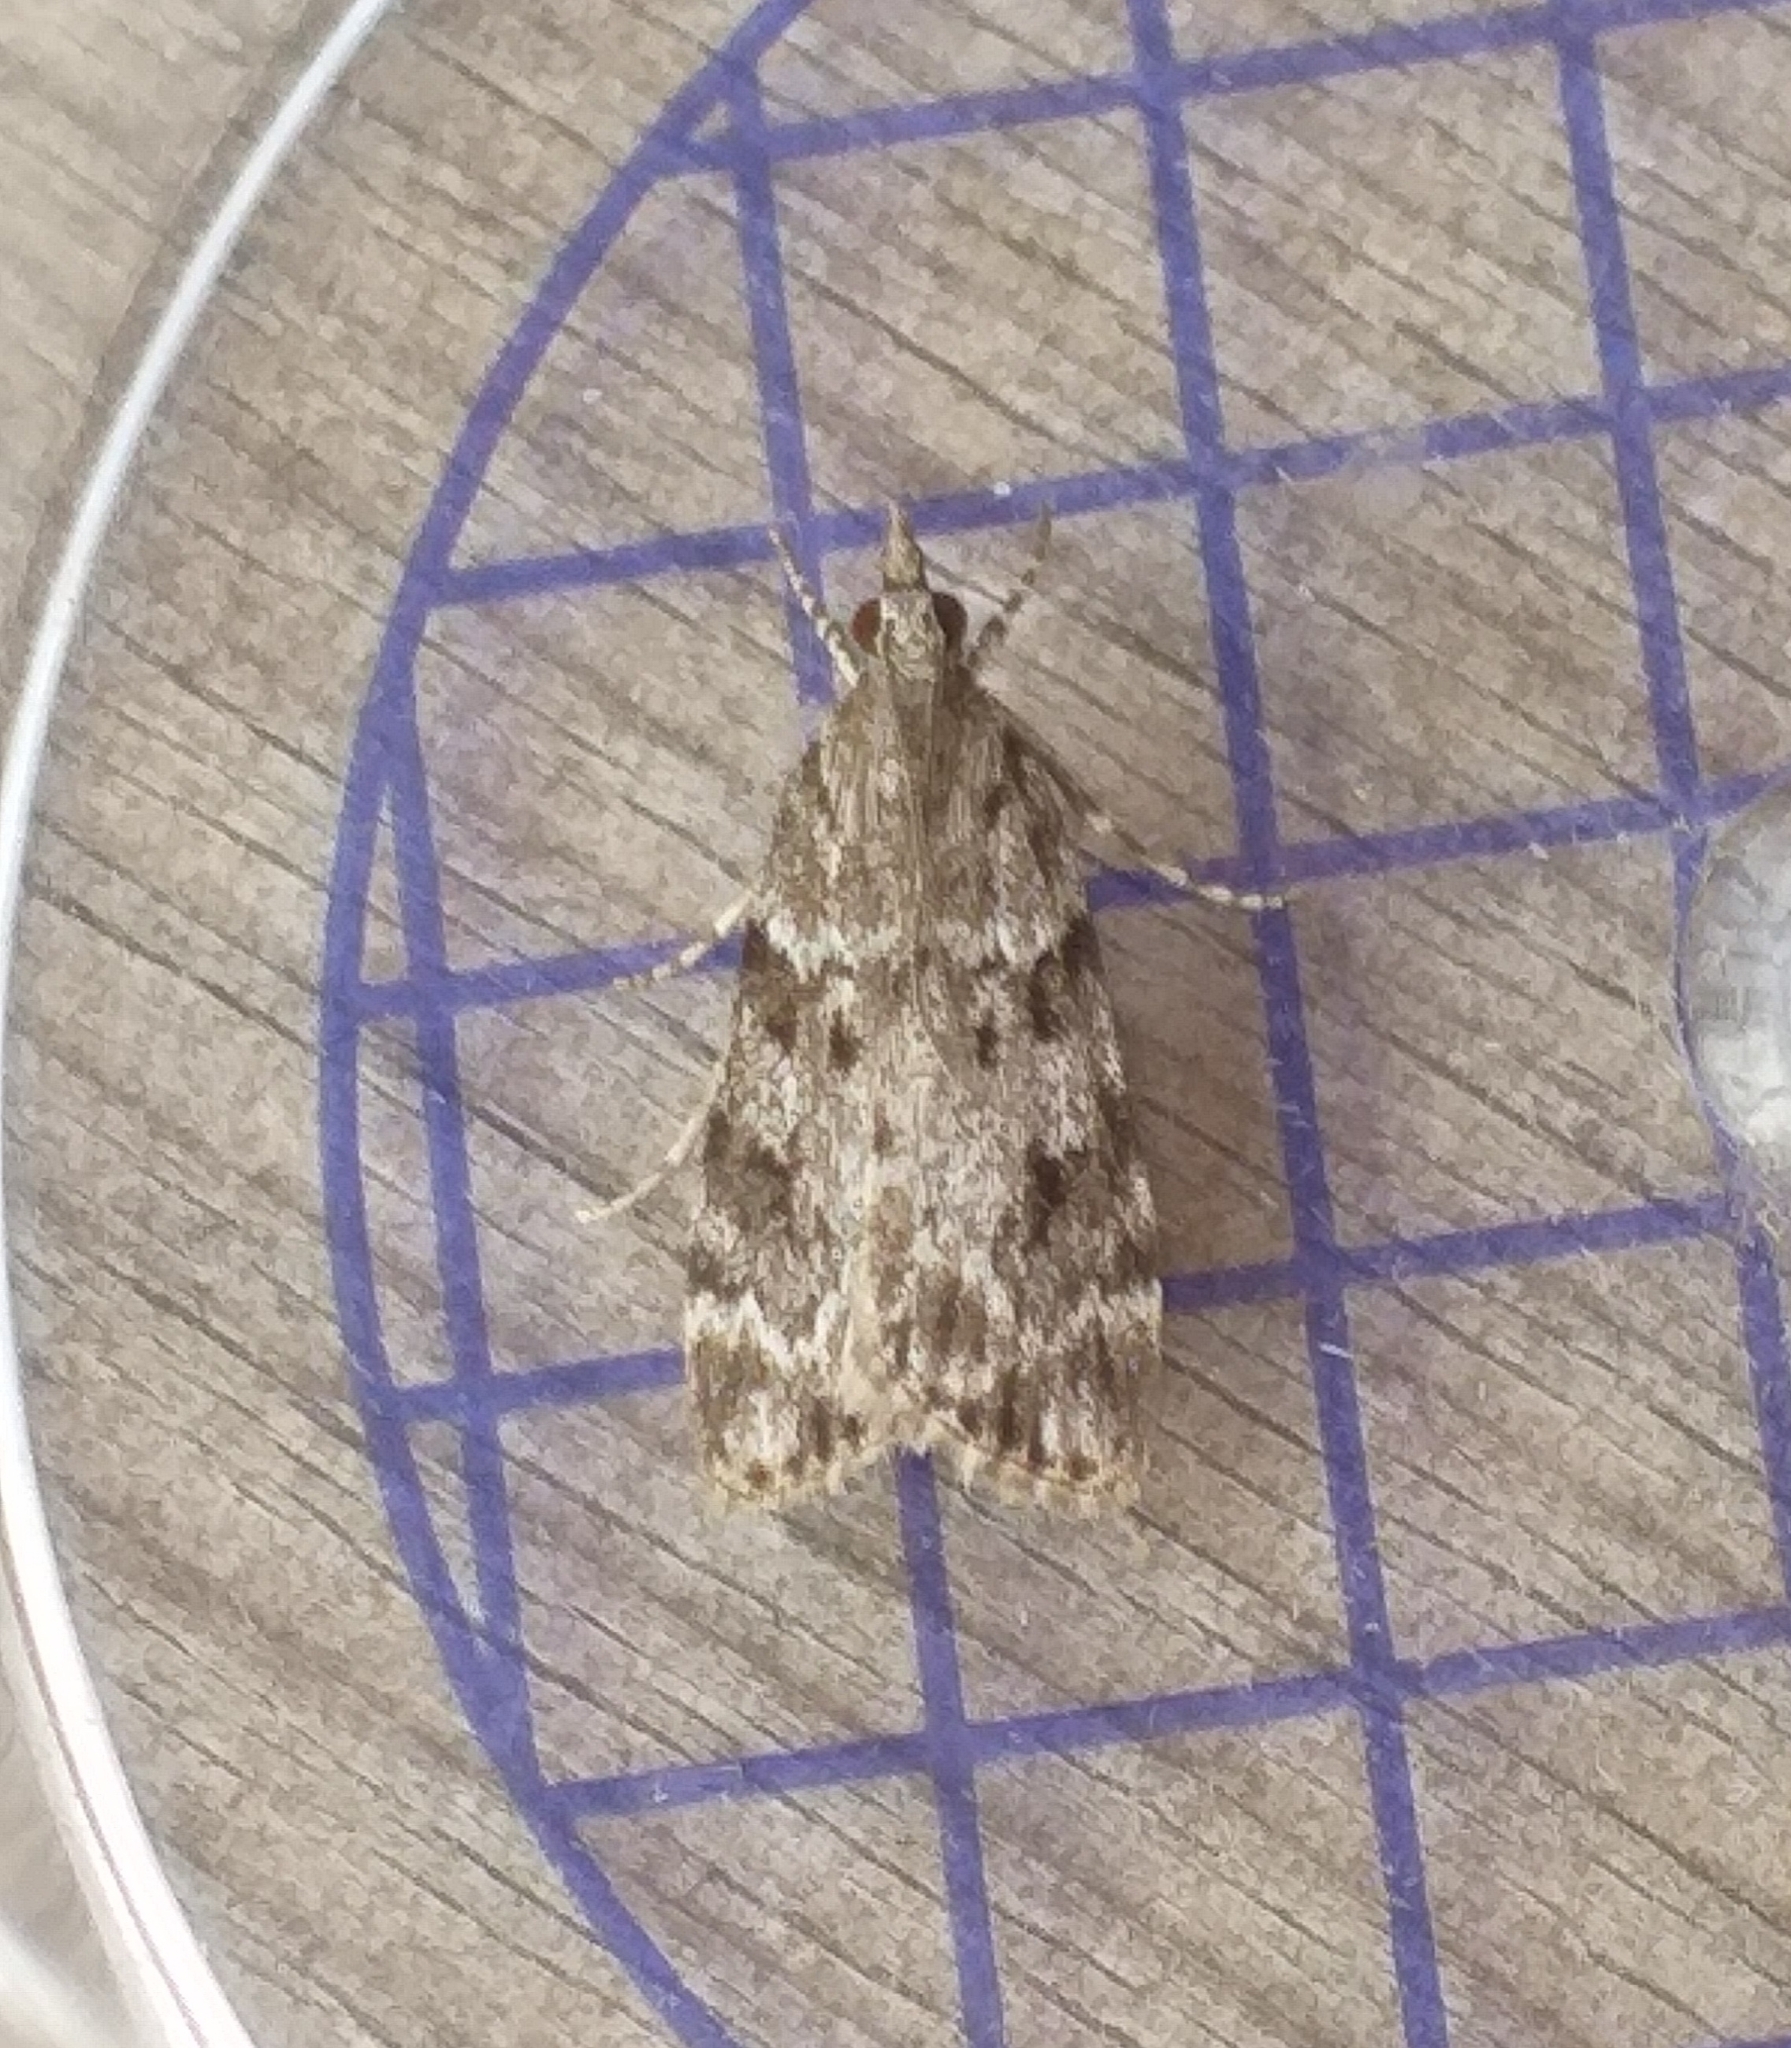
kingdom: Animalia
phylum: Arthropoda
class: Insecta
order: Lepidoptera
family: Crambidae
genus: Scoparia
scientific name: Scoparia ambigualis
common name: Common grey
